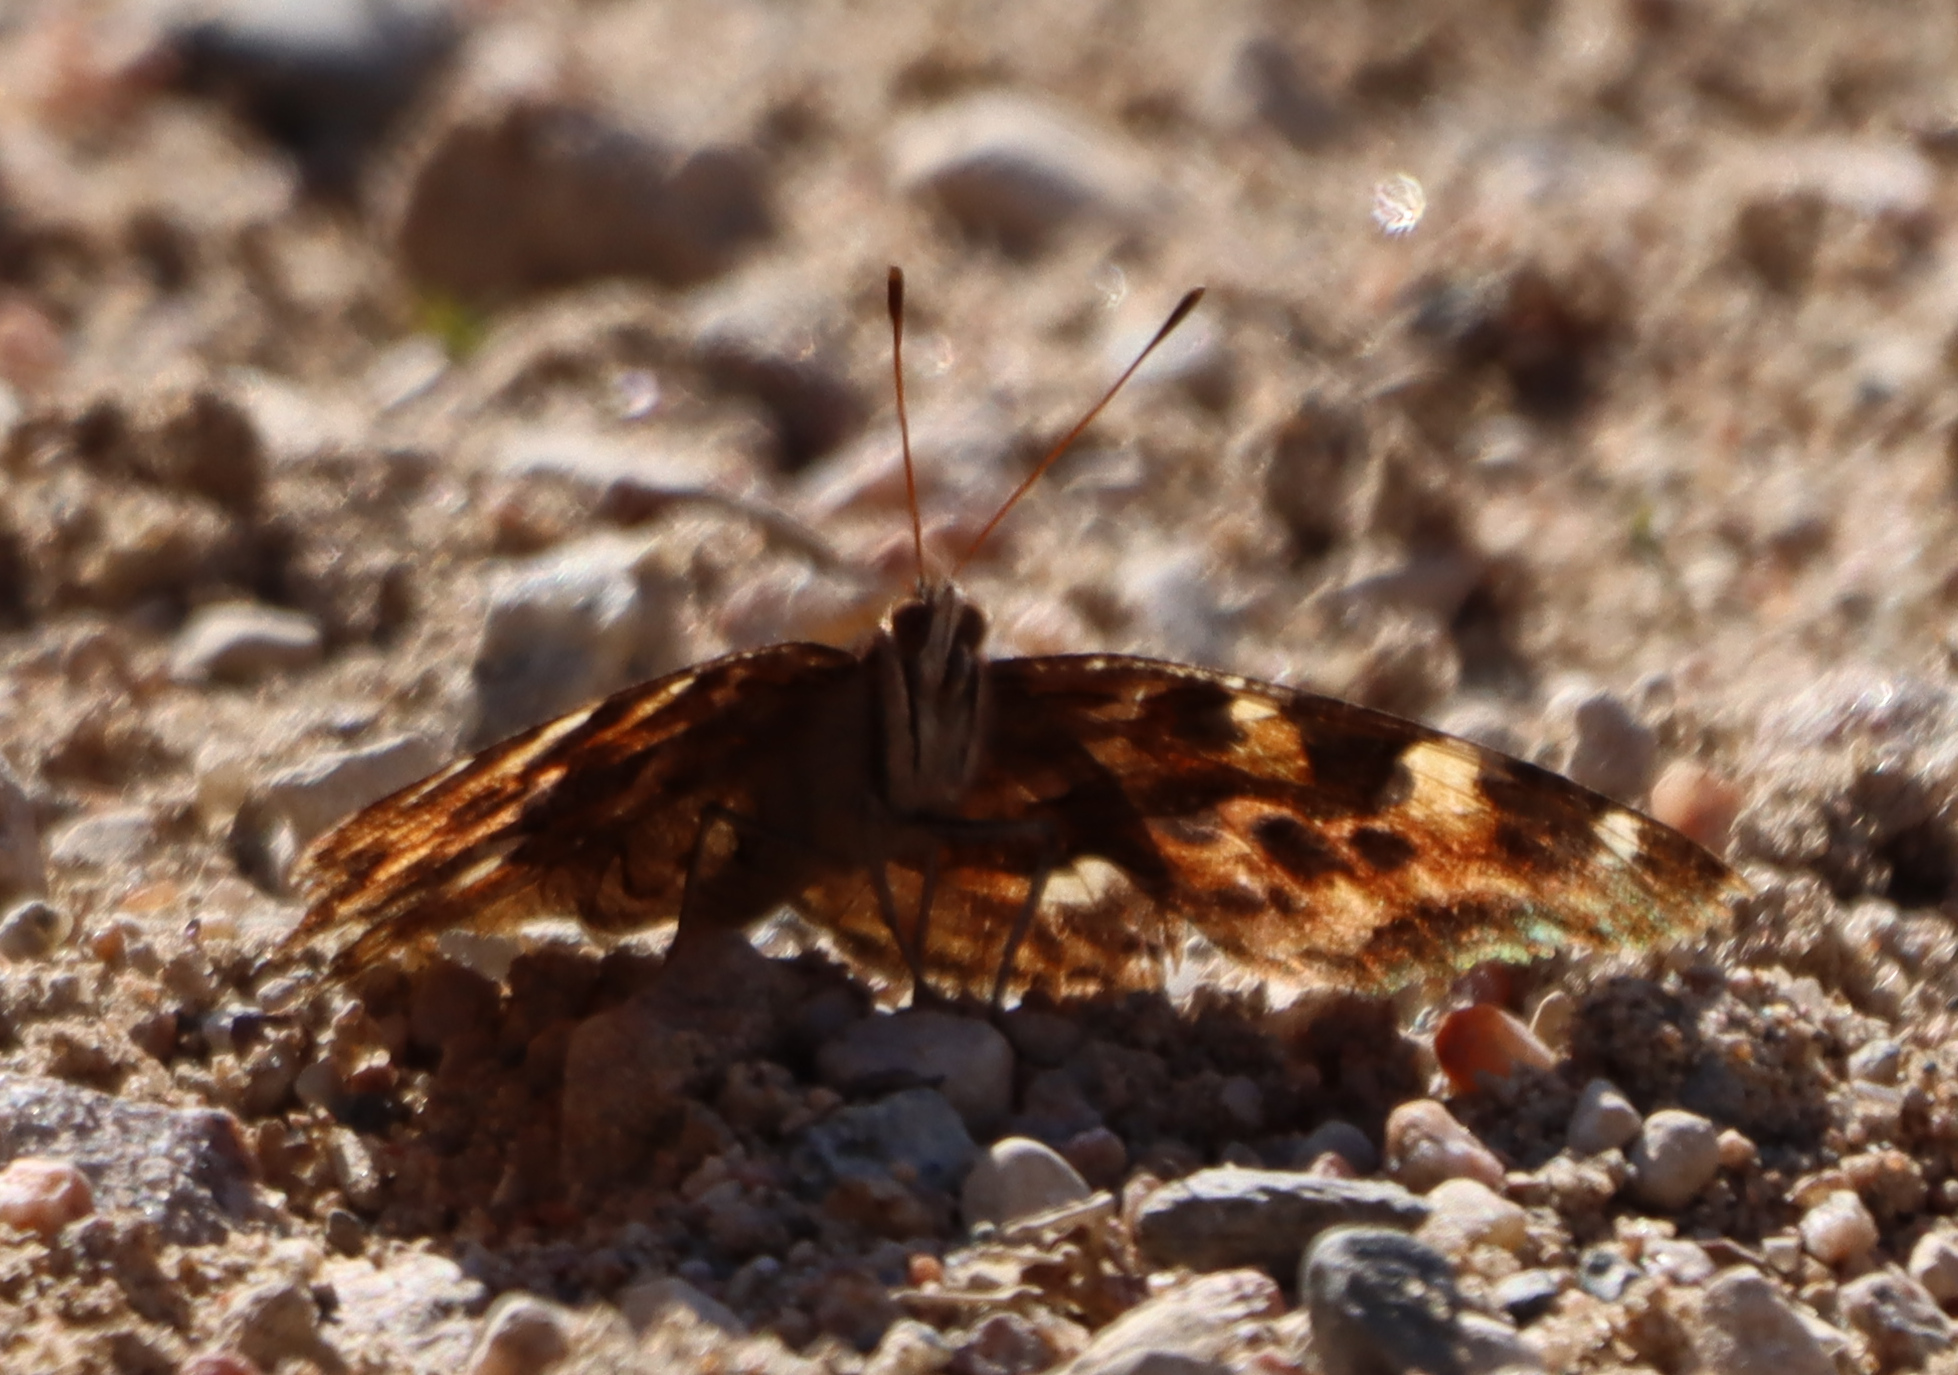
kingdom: Animalia
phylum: Arthropoda
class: Insecta
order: Lepidoptera
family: Nymphalidae
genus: Polygonia
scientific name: Polygonia vaualbum
